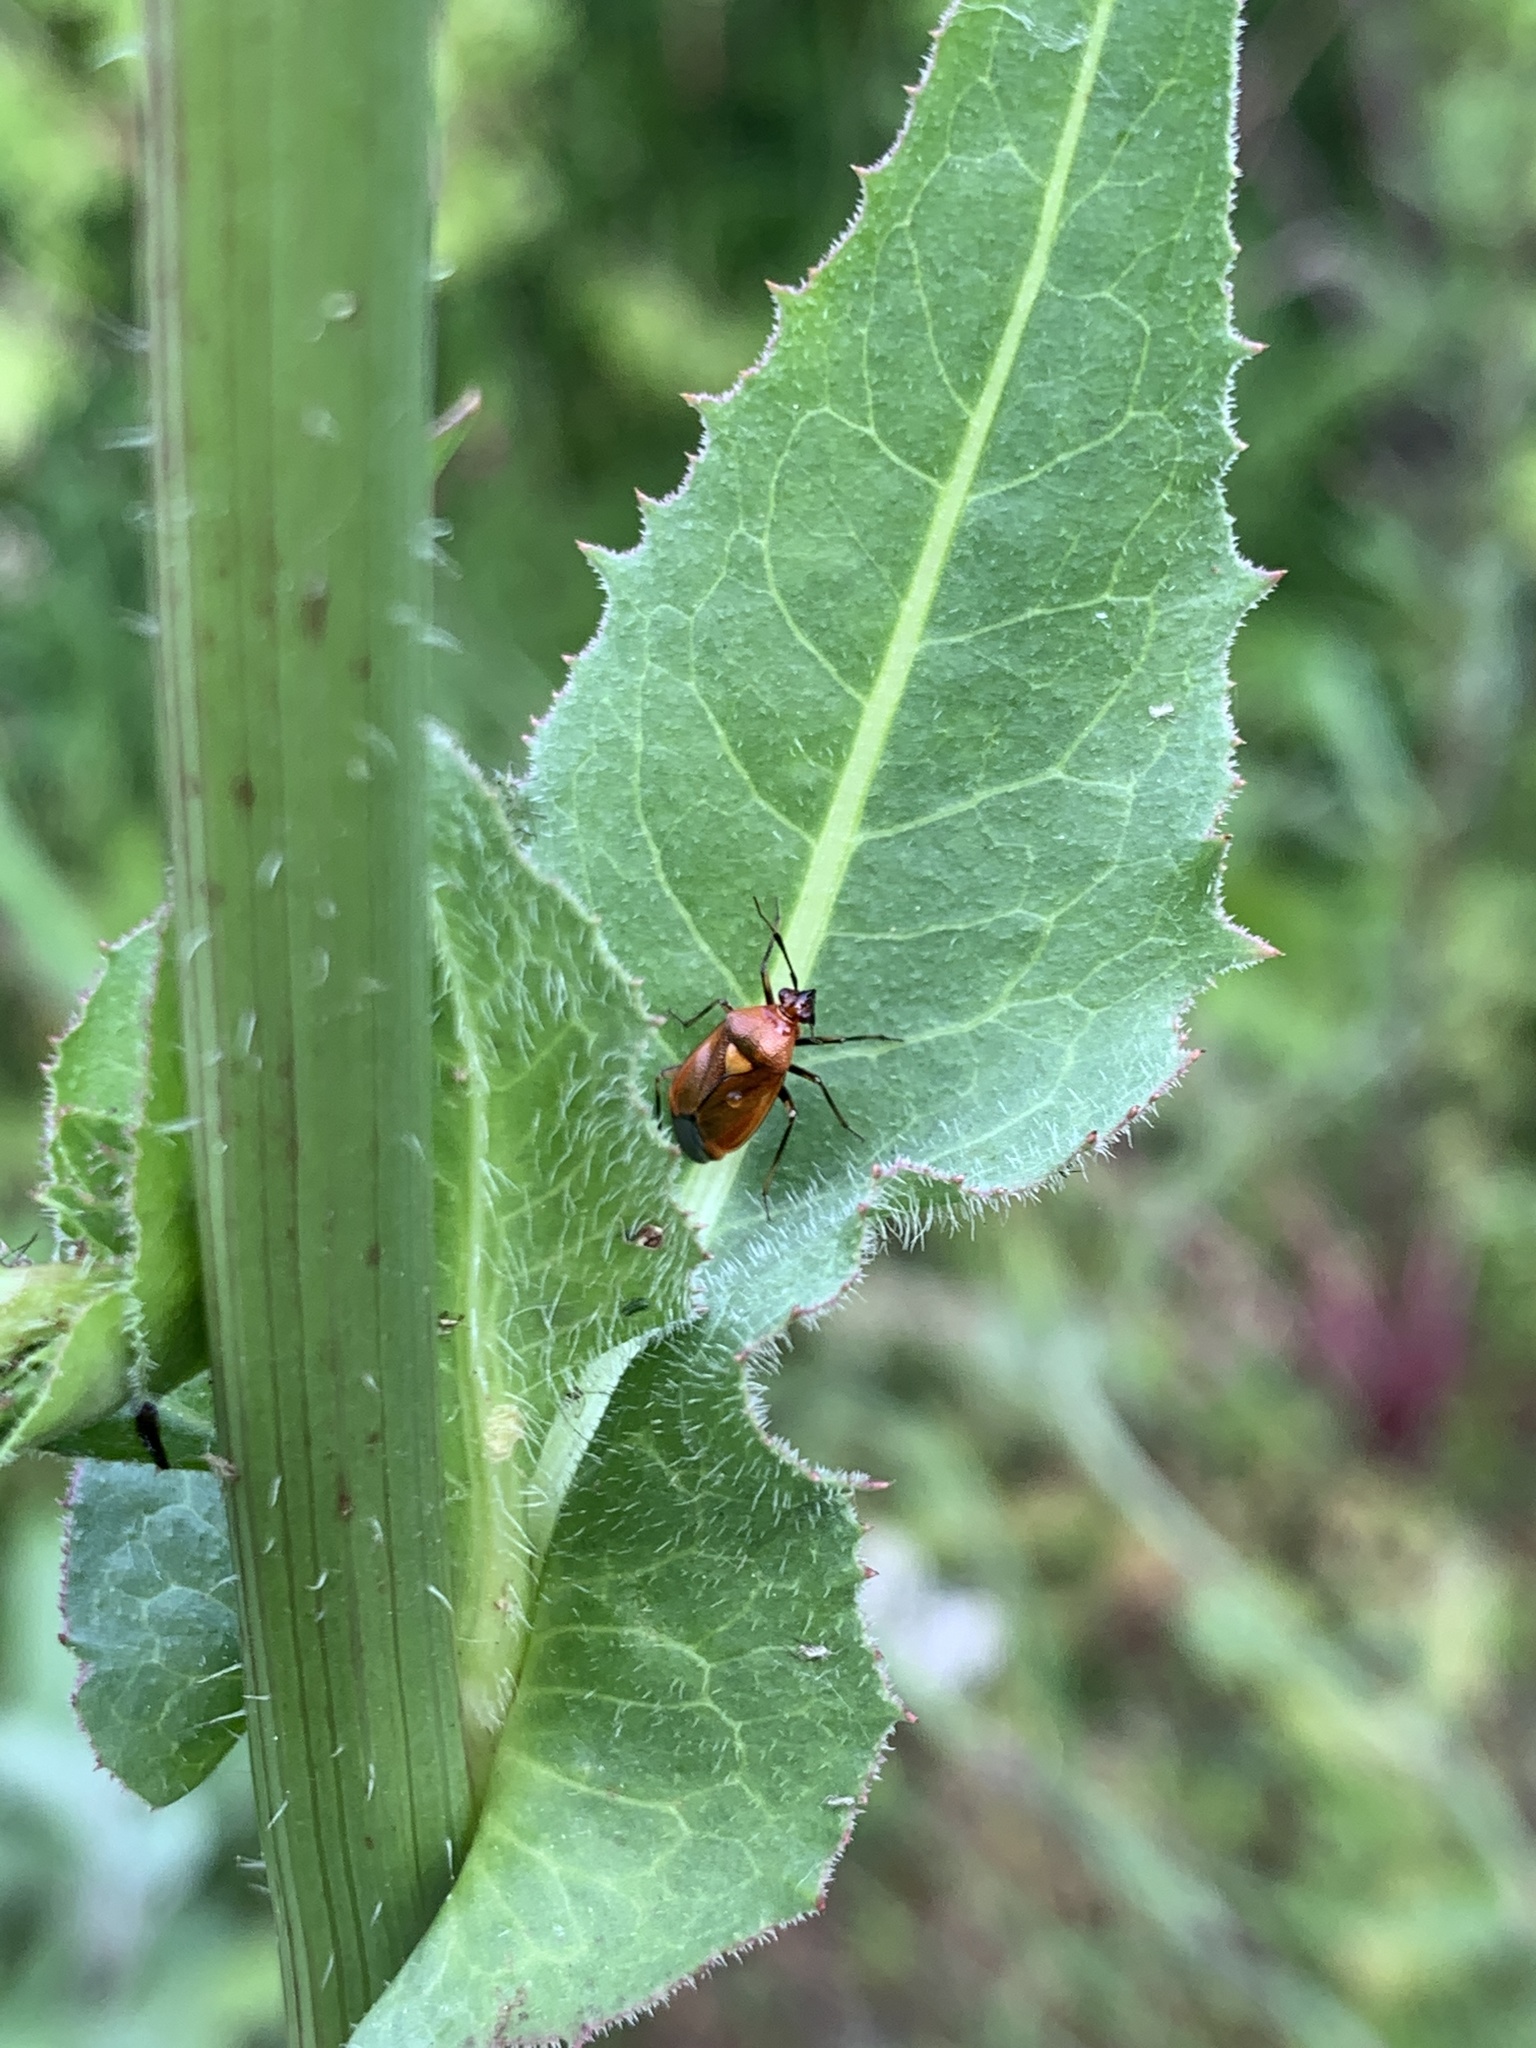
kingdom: Animalia
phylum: Arthropoda
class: Insecta
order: Hemiptera
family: Miridae
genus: Deraeocoris
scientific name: Deraeocoris ruber
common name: Plant bug
